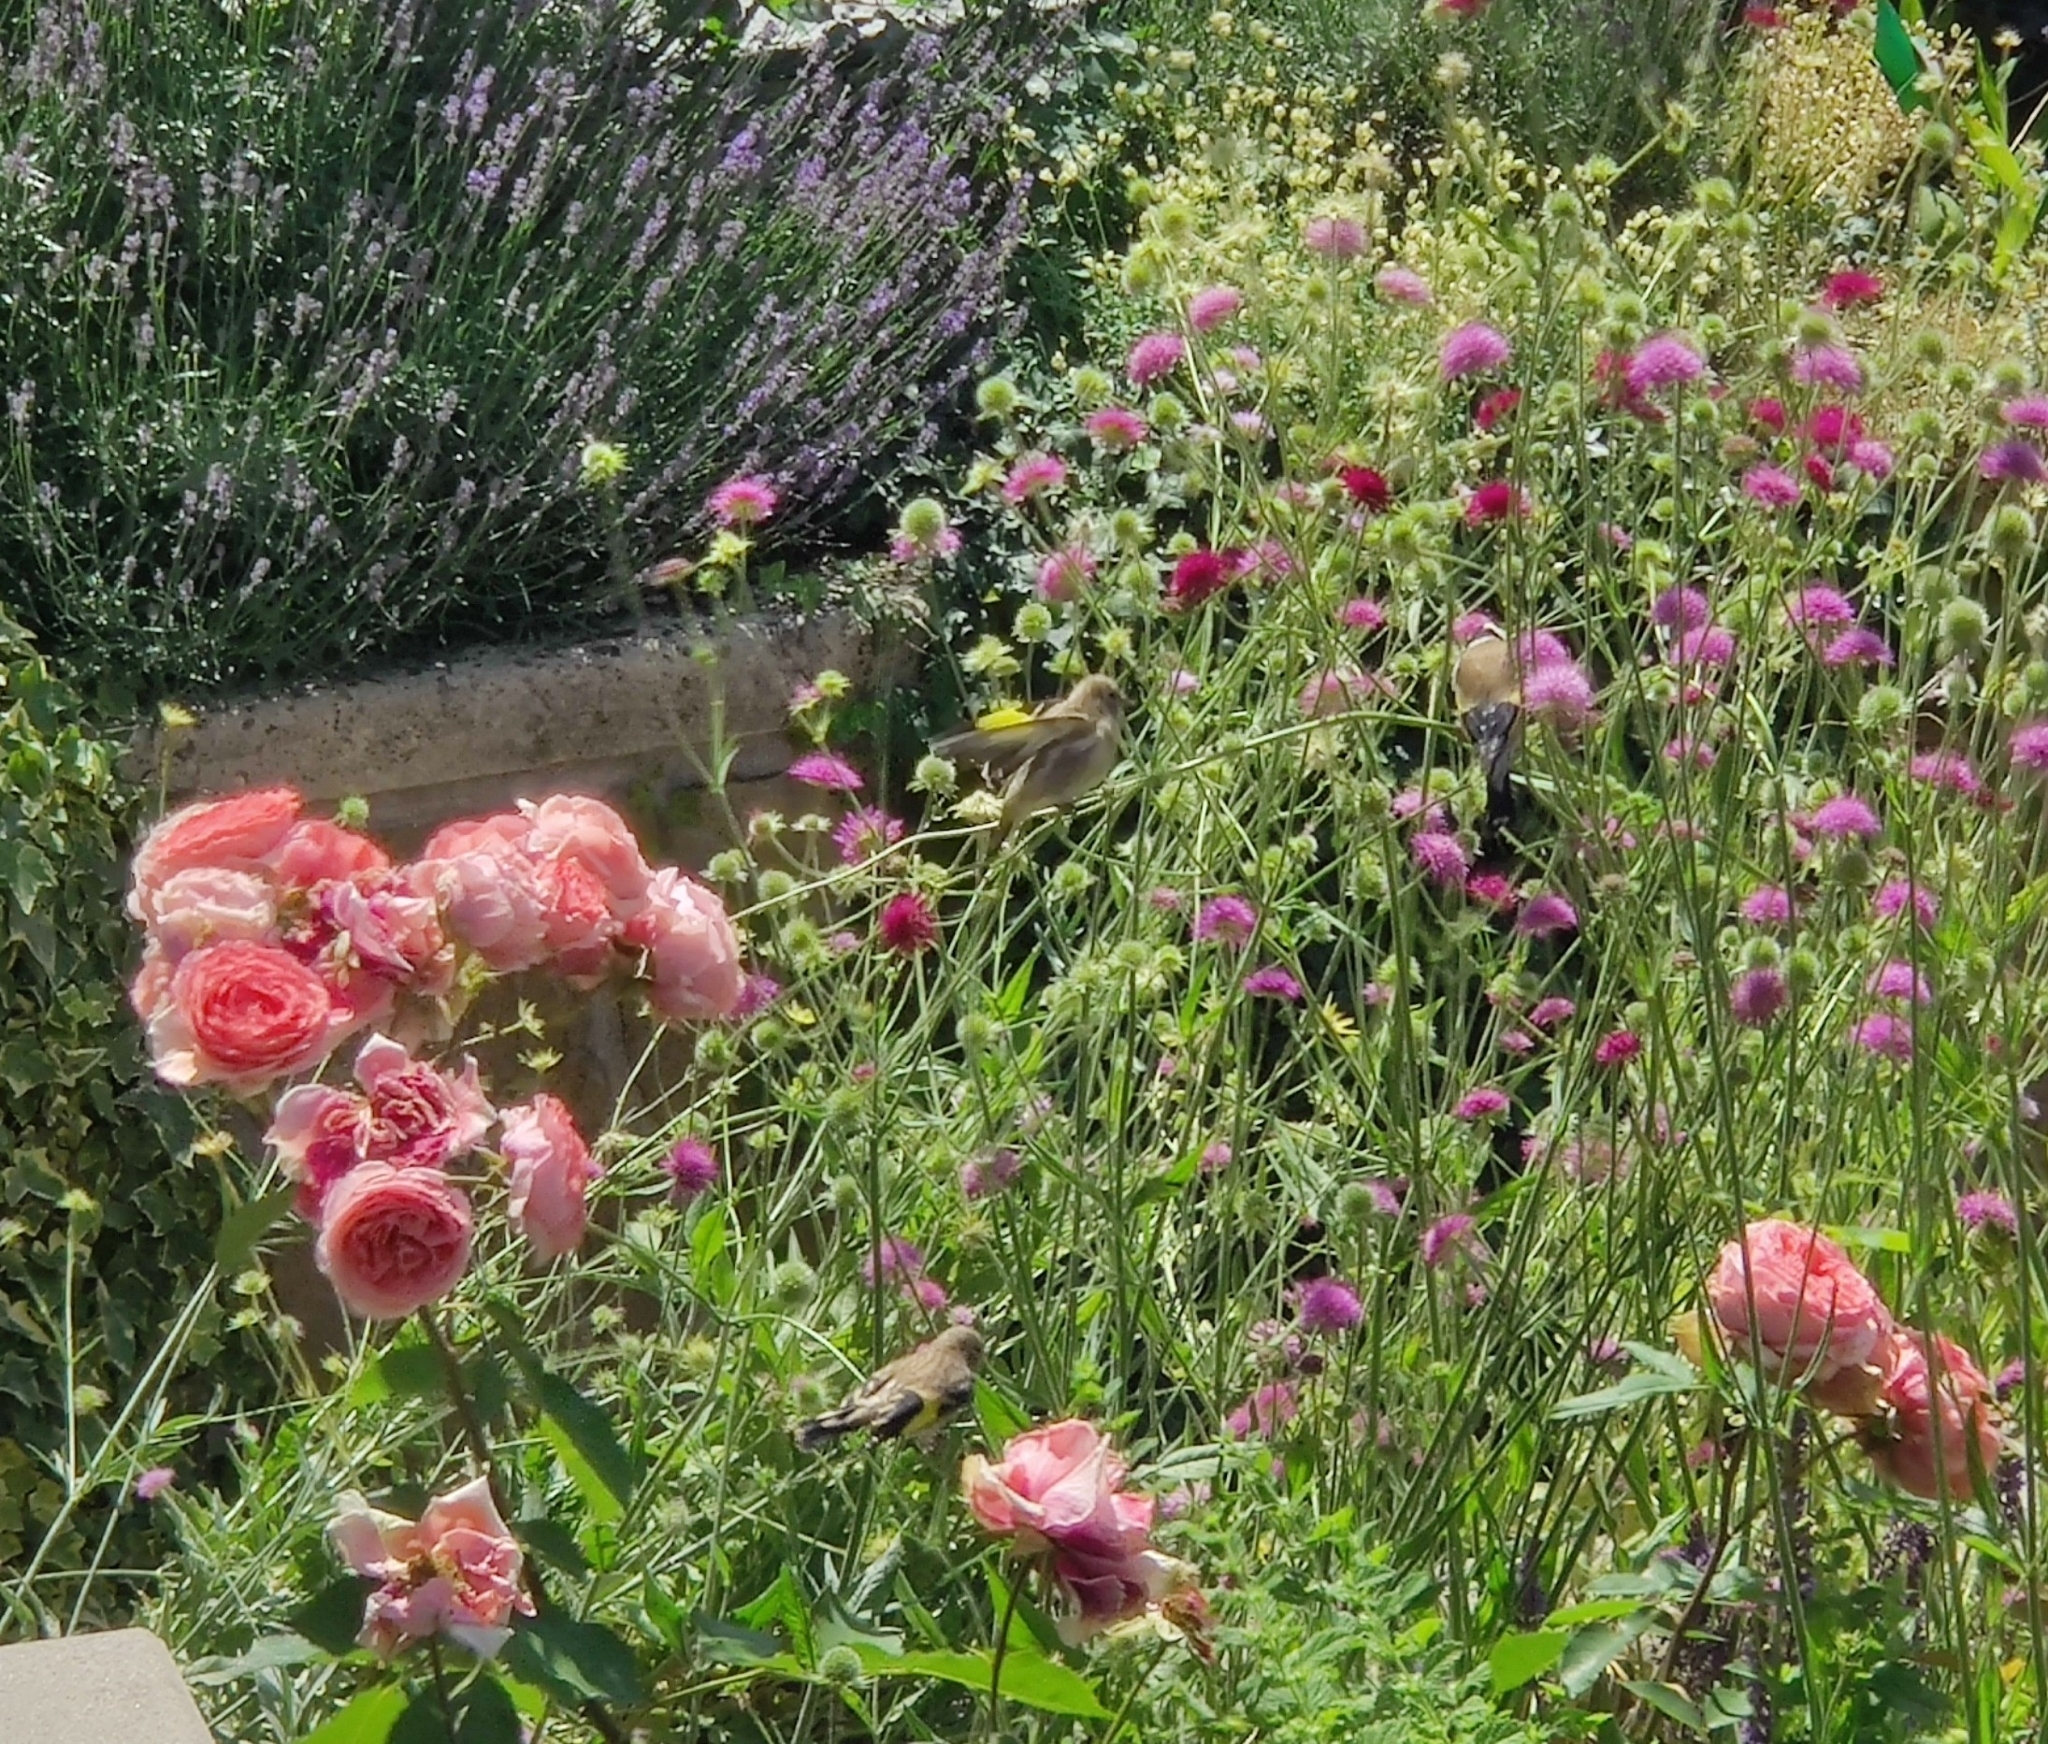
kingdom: Animalia
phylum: Chordata
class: Aves
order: Passeriformes
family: Fringillidae
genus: Carduelis
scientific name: Carduelis carduelis
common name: European goldfinch
